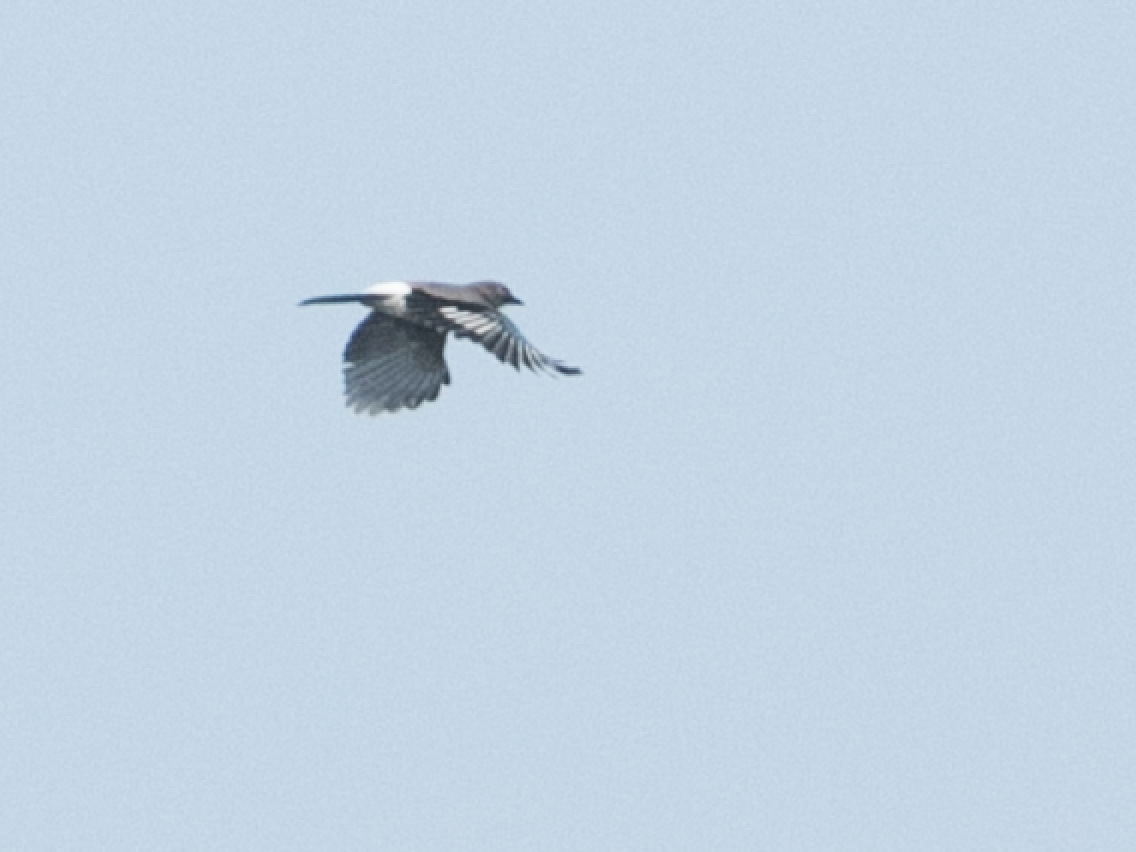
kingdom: Animalia
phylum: Chordata
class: Aves
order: Passeriformes
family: Corvidae
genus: Garrulus
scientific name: Garrulus glandarius
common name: Eurasian jay
